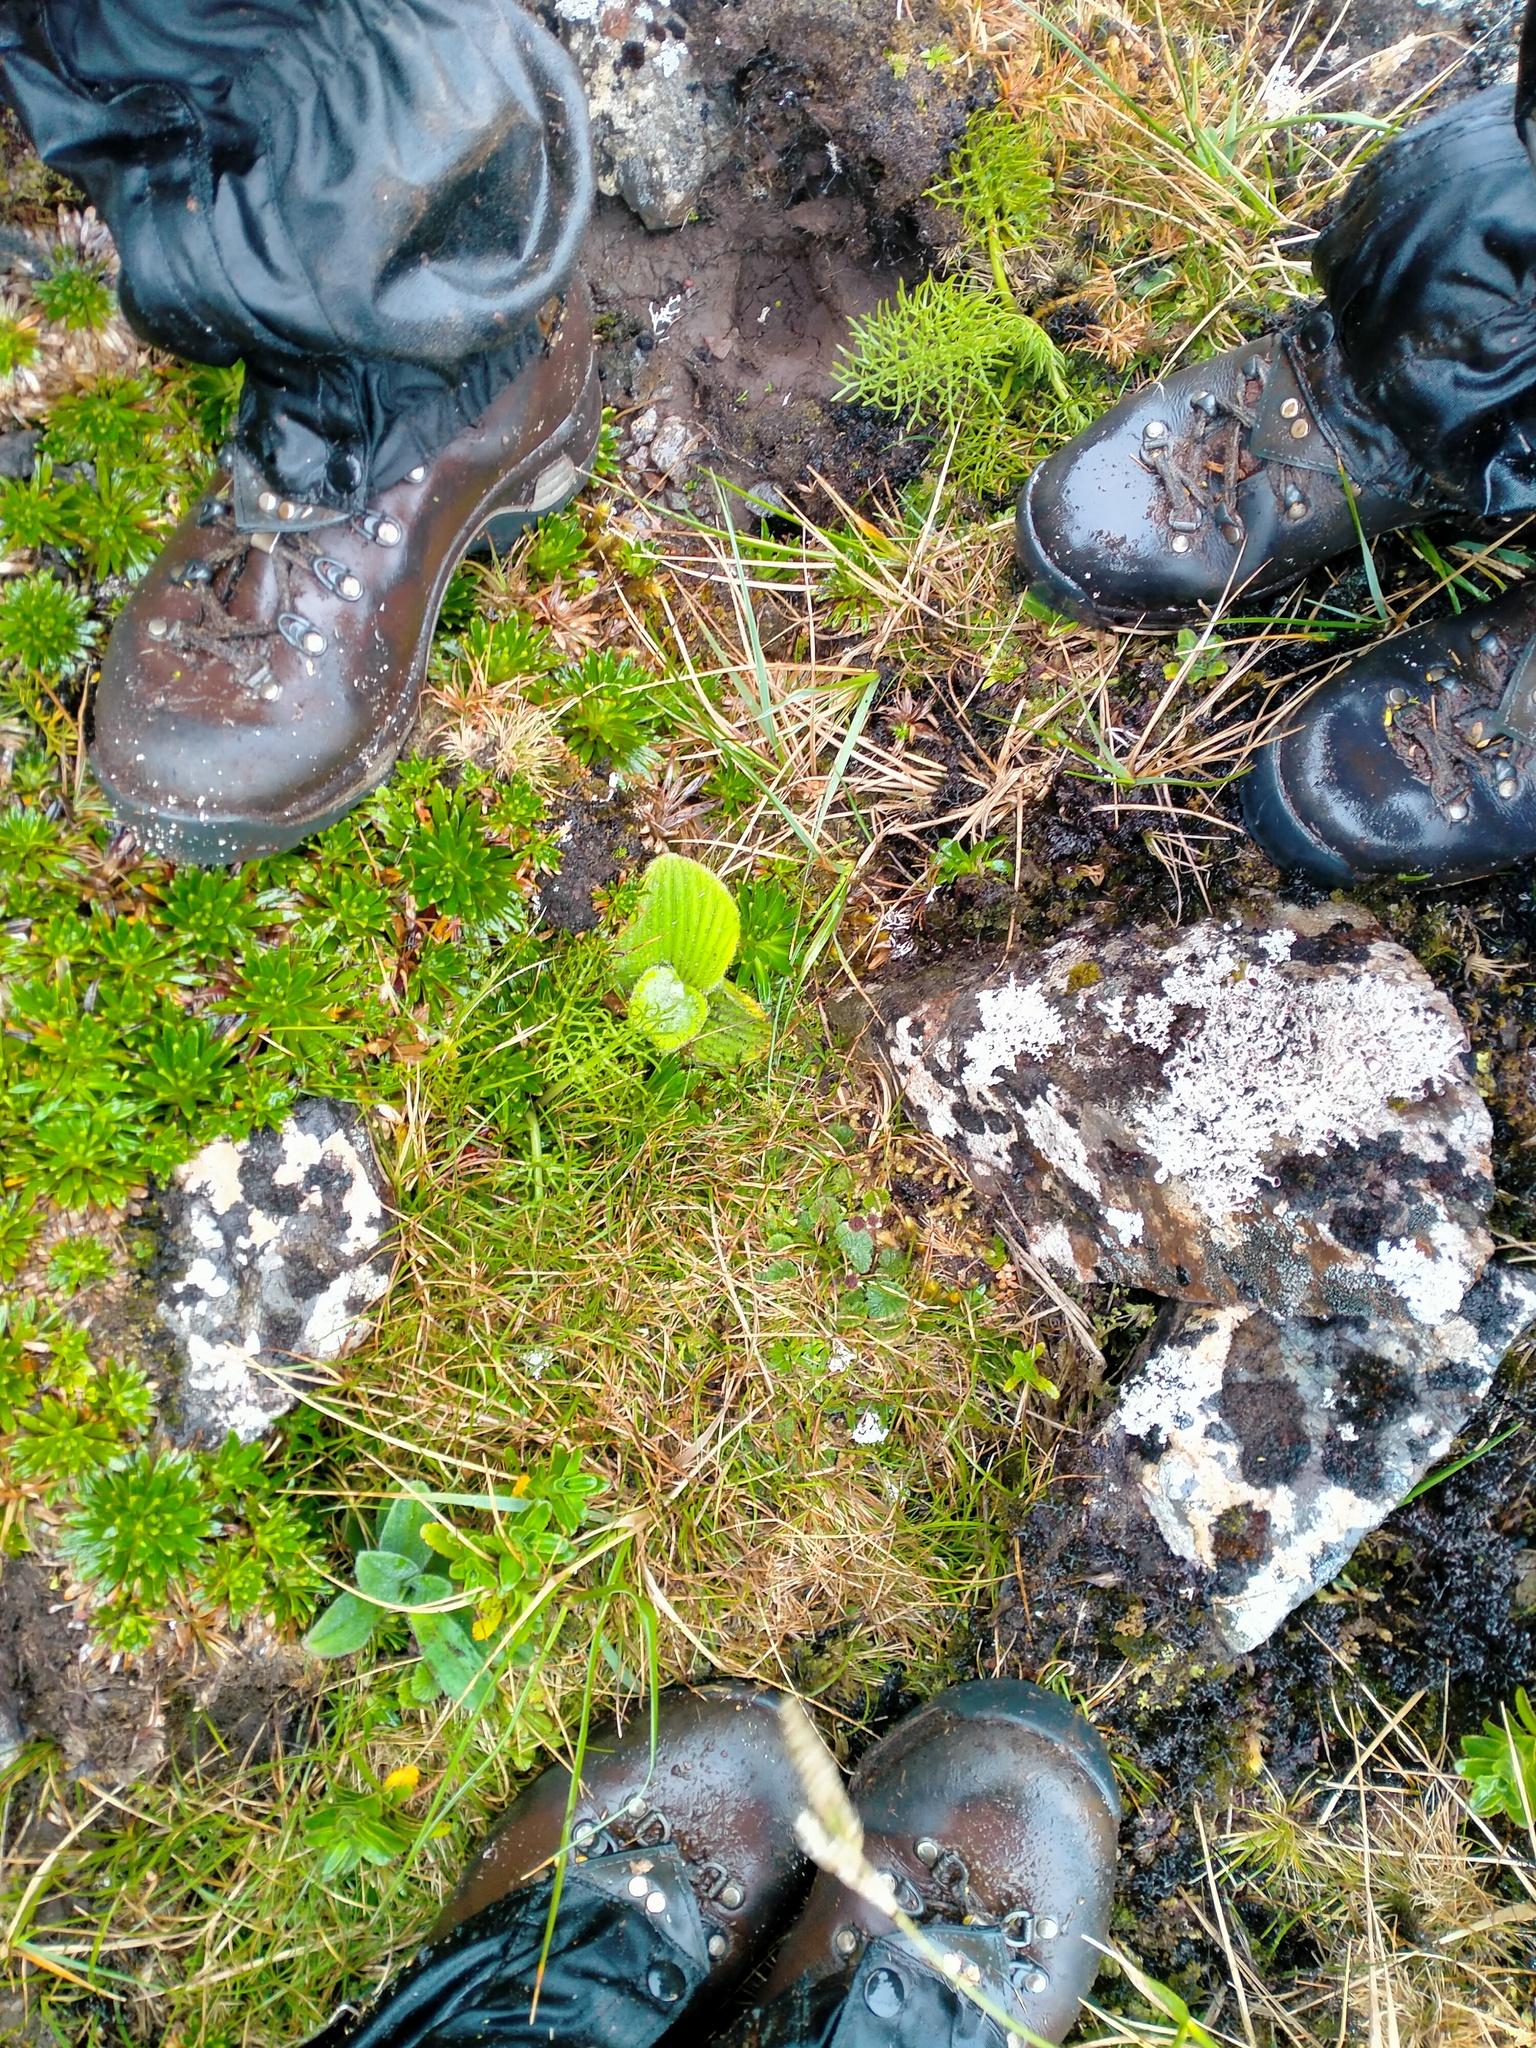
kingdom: Plantae
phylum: Tracheophyta
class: Magnoliopsida
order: Asterales
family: Asteraceae
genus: Damnamenia
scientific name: Damnamenia vernicosa
